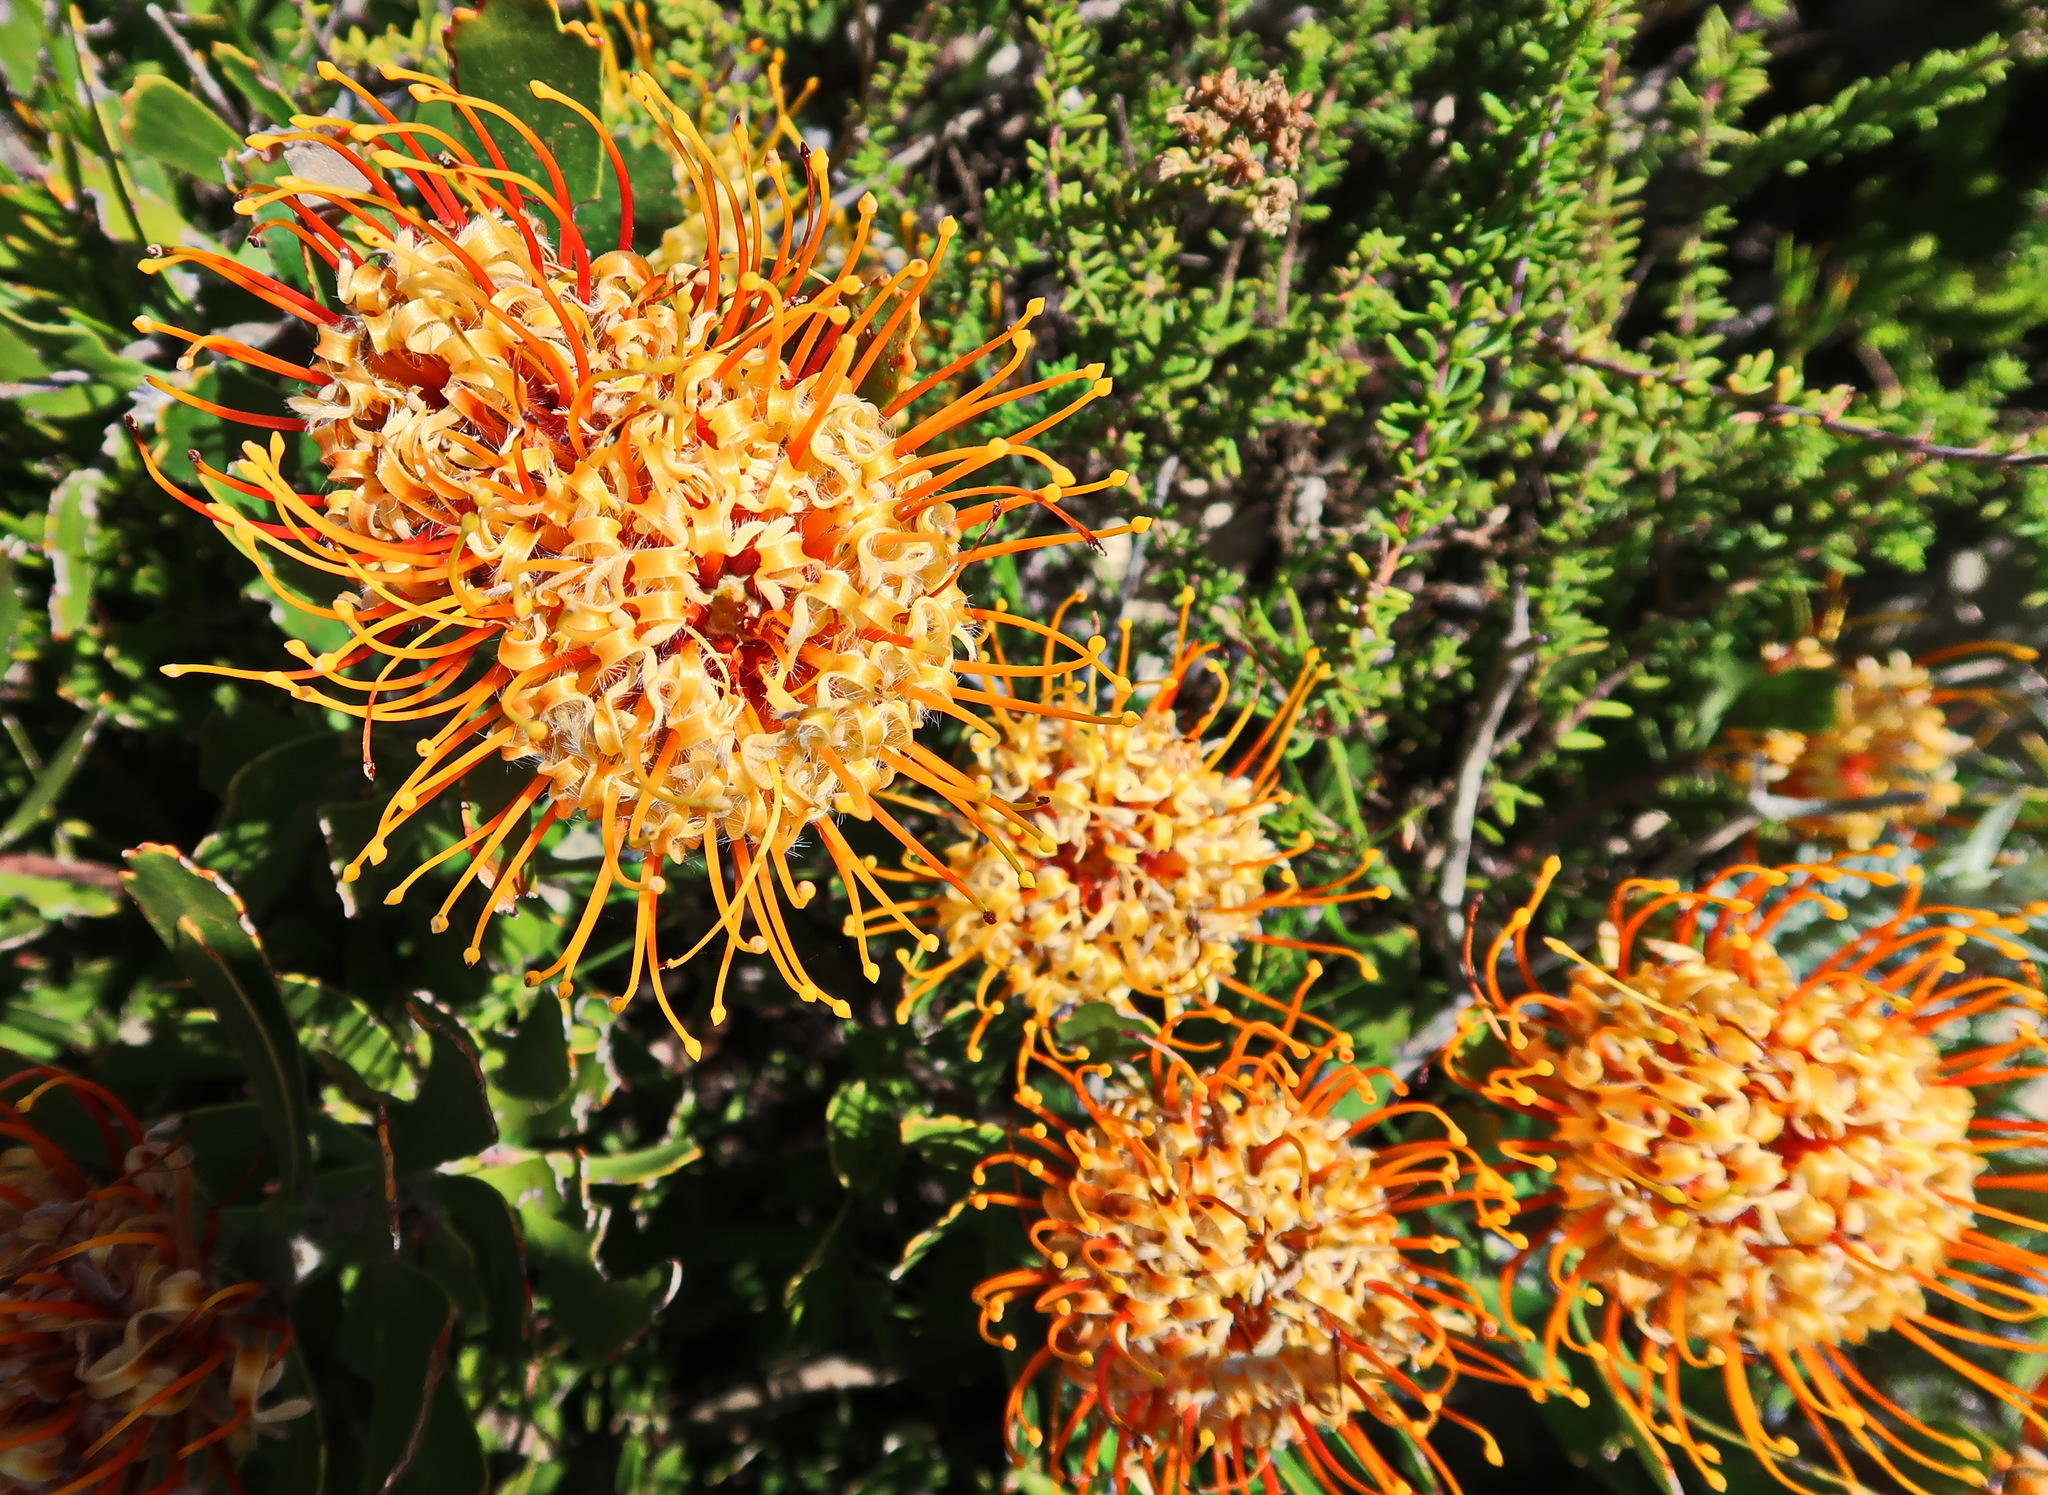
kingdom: Plantae
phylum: Tracheophyta
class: Magnoliopsida
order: Proteales
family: Proteaceae
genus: Leucospermum
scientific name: Leucospermum cuneiforme
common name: Common pincushion
